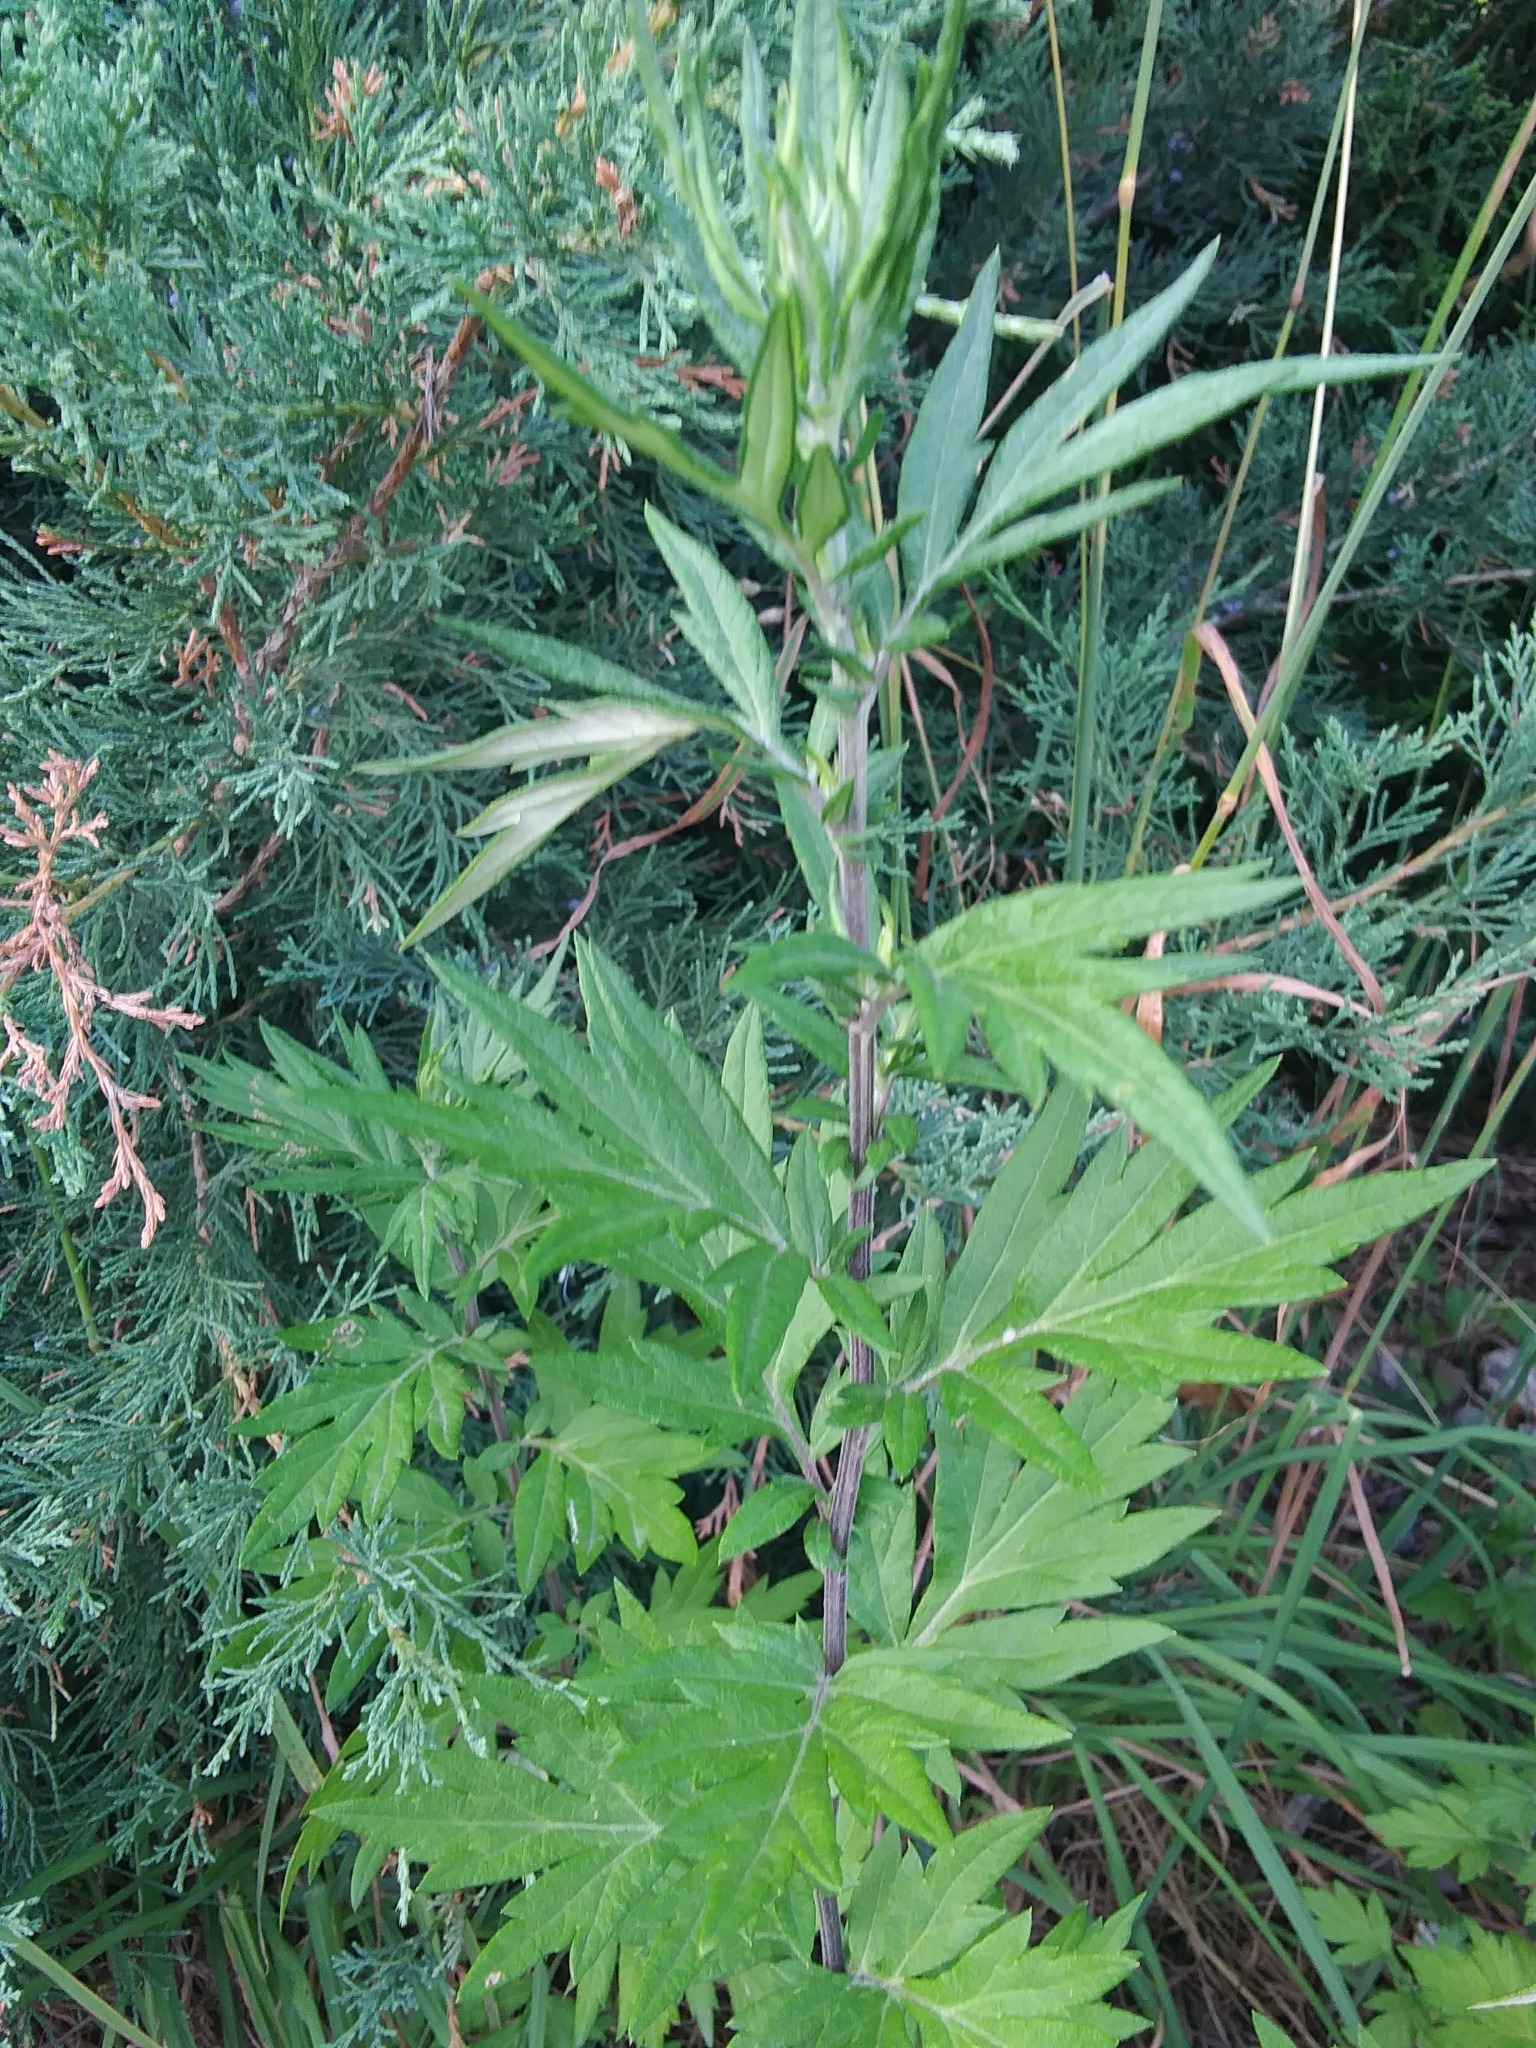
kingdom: Plantae
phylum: Tracheophyta
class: Magnoliopsida
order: Asterales
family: Asteraceae
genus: Artemisia
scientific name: Artemisia vulgaris
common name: Mugwort
